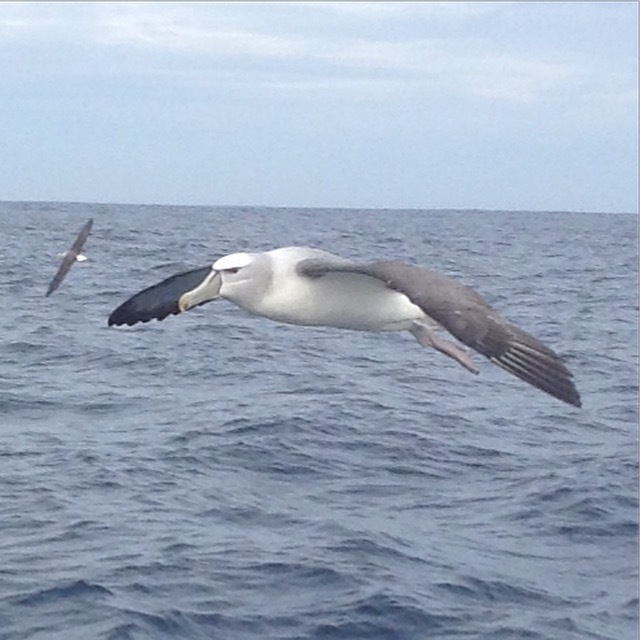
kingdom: Animalia
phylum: Chordata
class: Aves
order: Procellariiformes
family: Diomedeidae
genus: Thalassarche
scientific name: Thalassarche cauta
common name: Shy albatross
